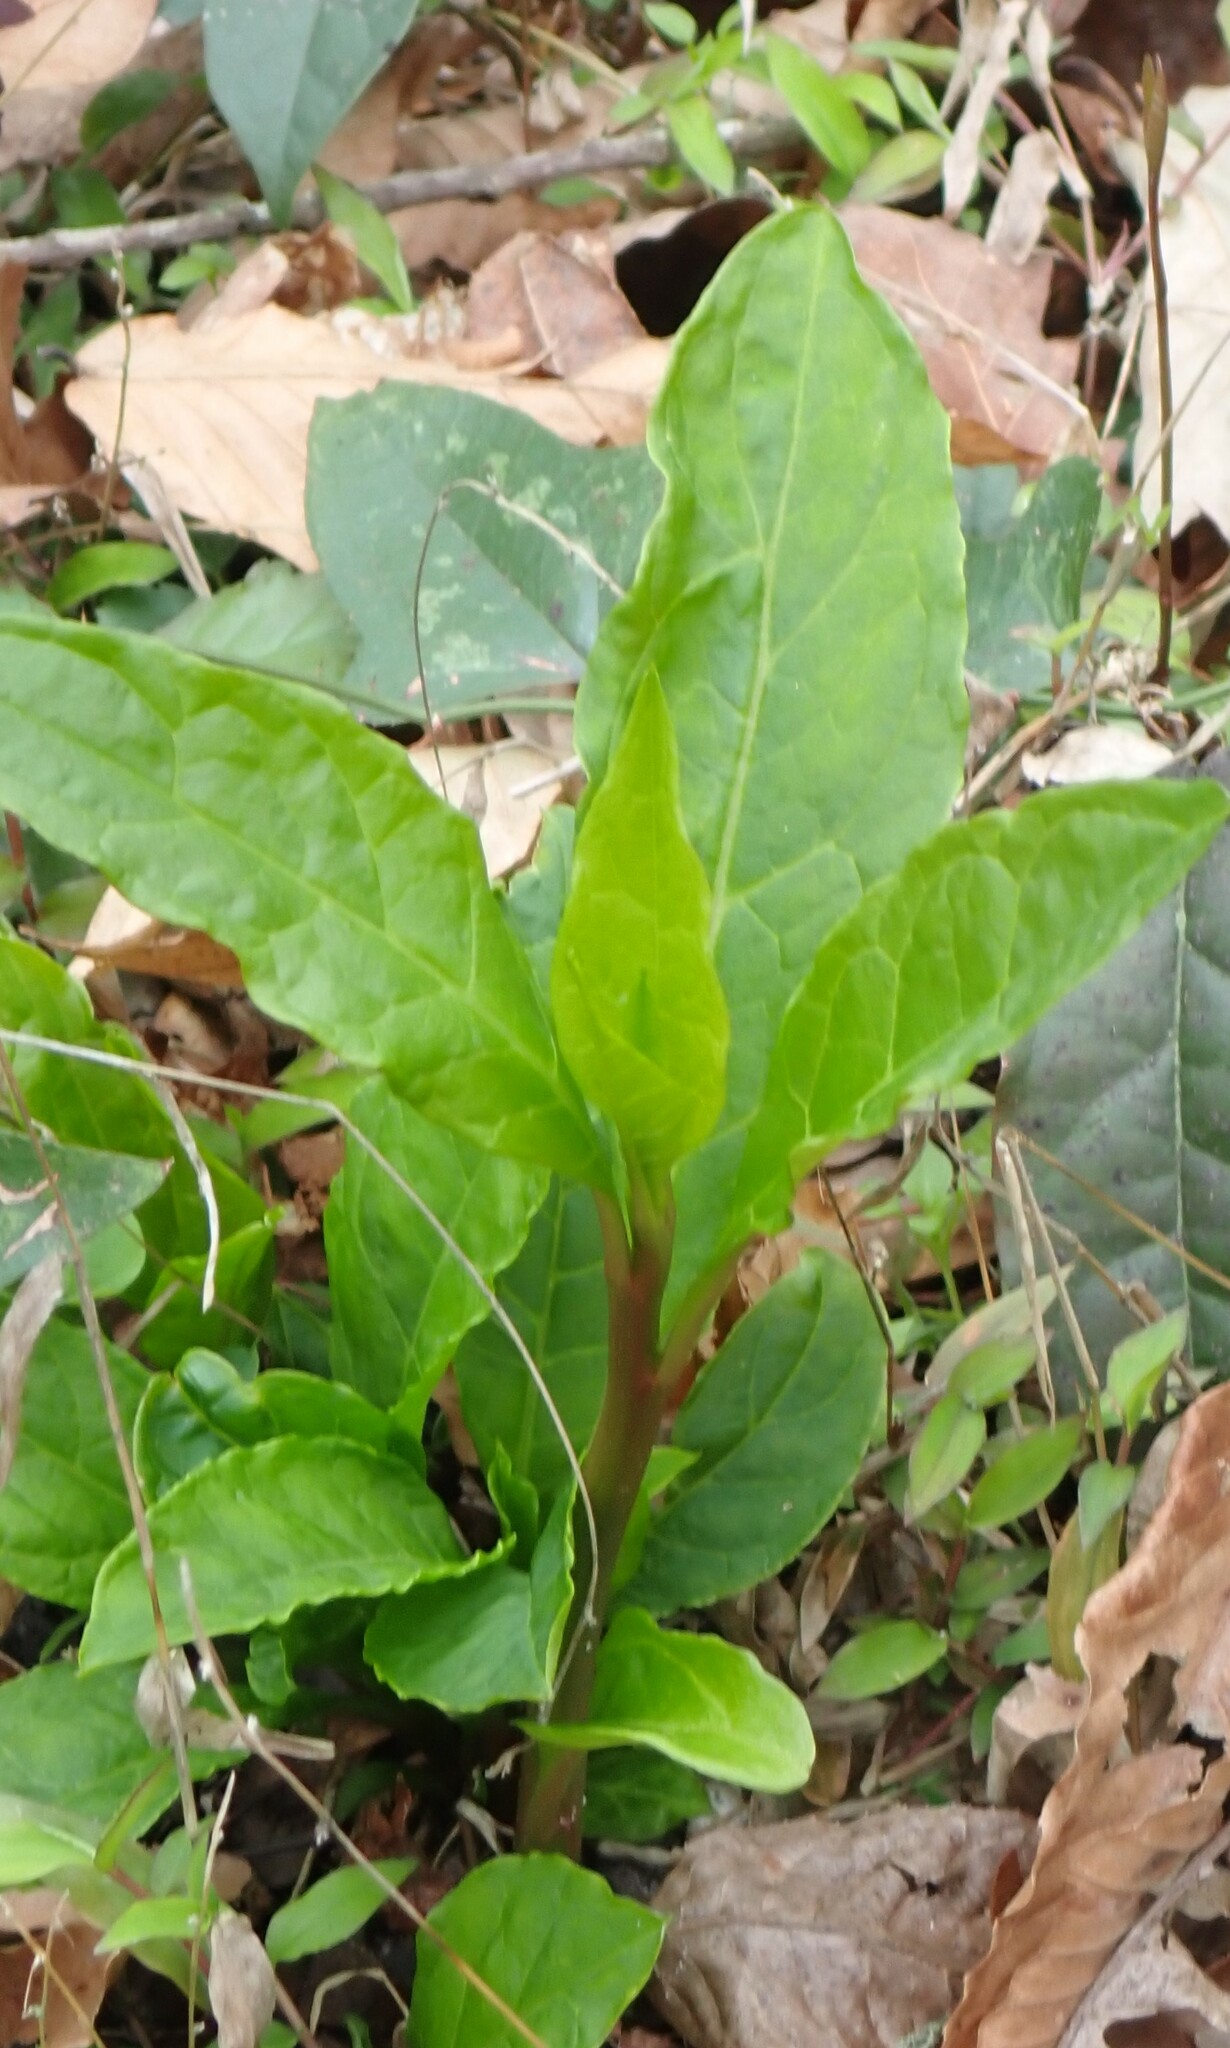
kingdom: Plantae
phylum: Tracheophyta
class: Magnoliopsida
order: Caryophyllales
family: Phytolaccaceae
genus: Phytolacca
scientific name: Phytolacca americana
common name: American pokeweed
